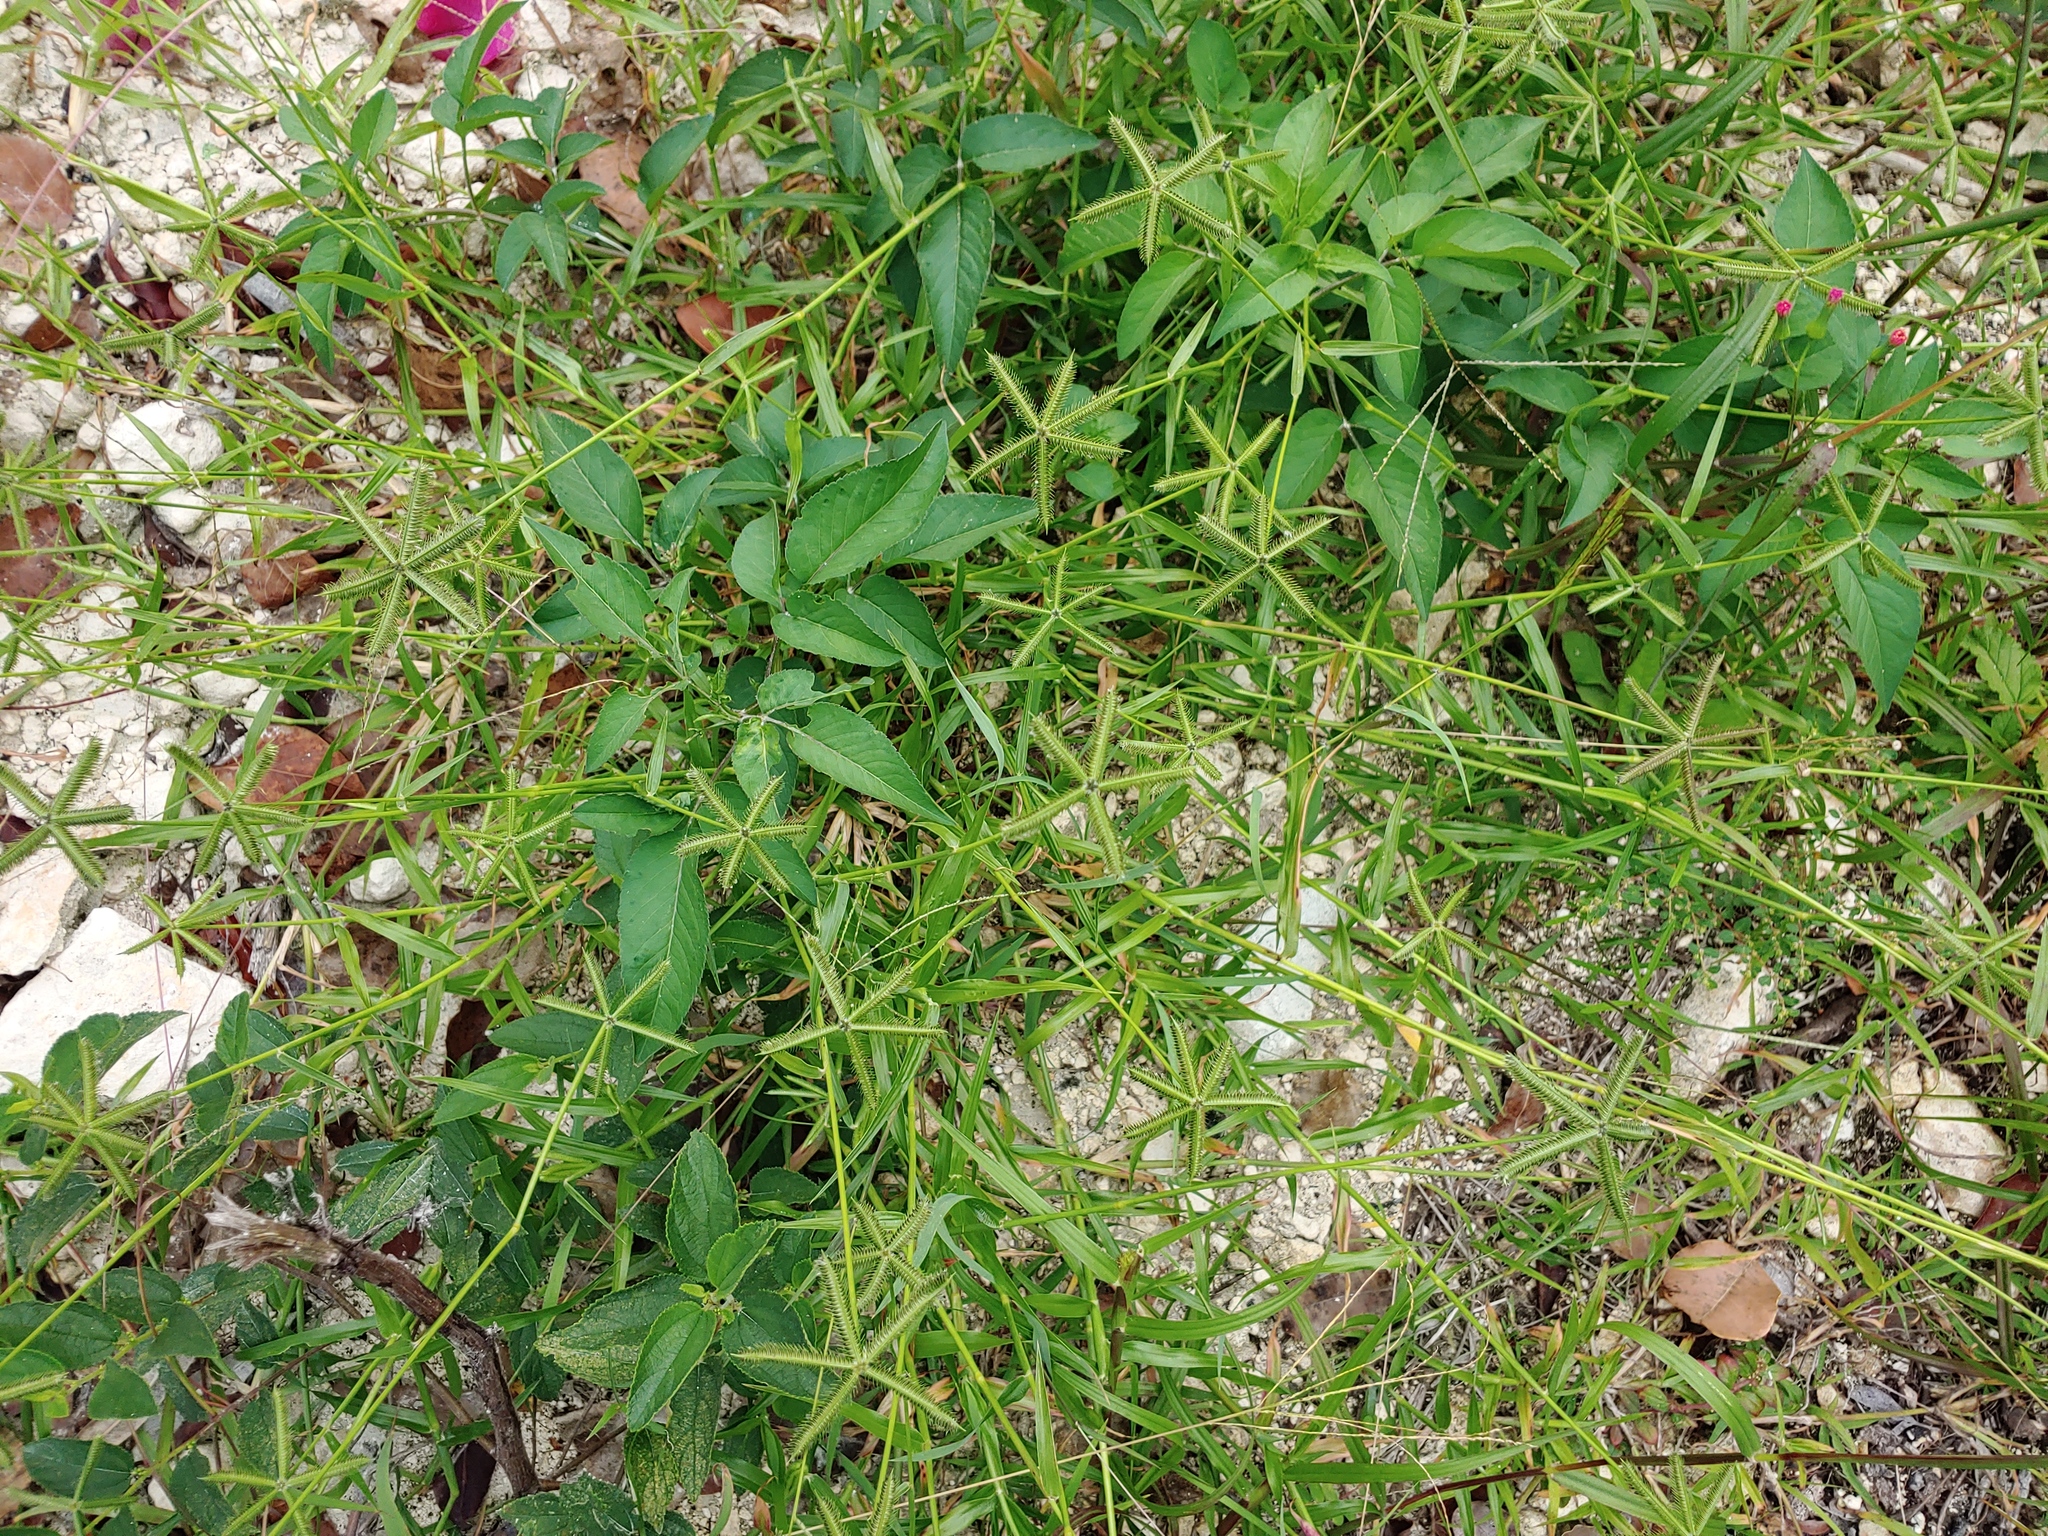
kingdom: Plantae
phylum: Tracheophyta
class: Liliopsida
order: Poales
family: Poaceae
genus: Dactyloctenium
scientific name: Dactyloctenium aegyptium
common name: Egyptian grass
